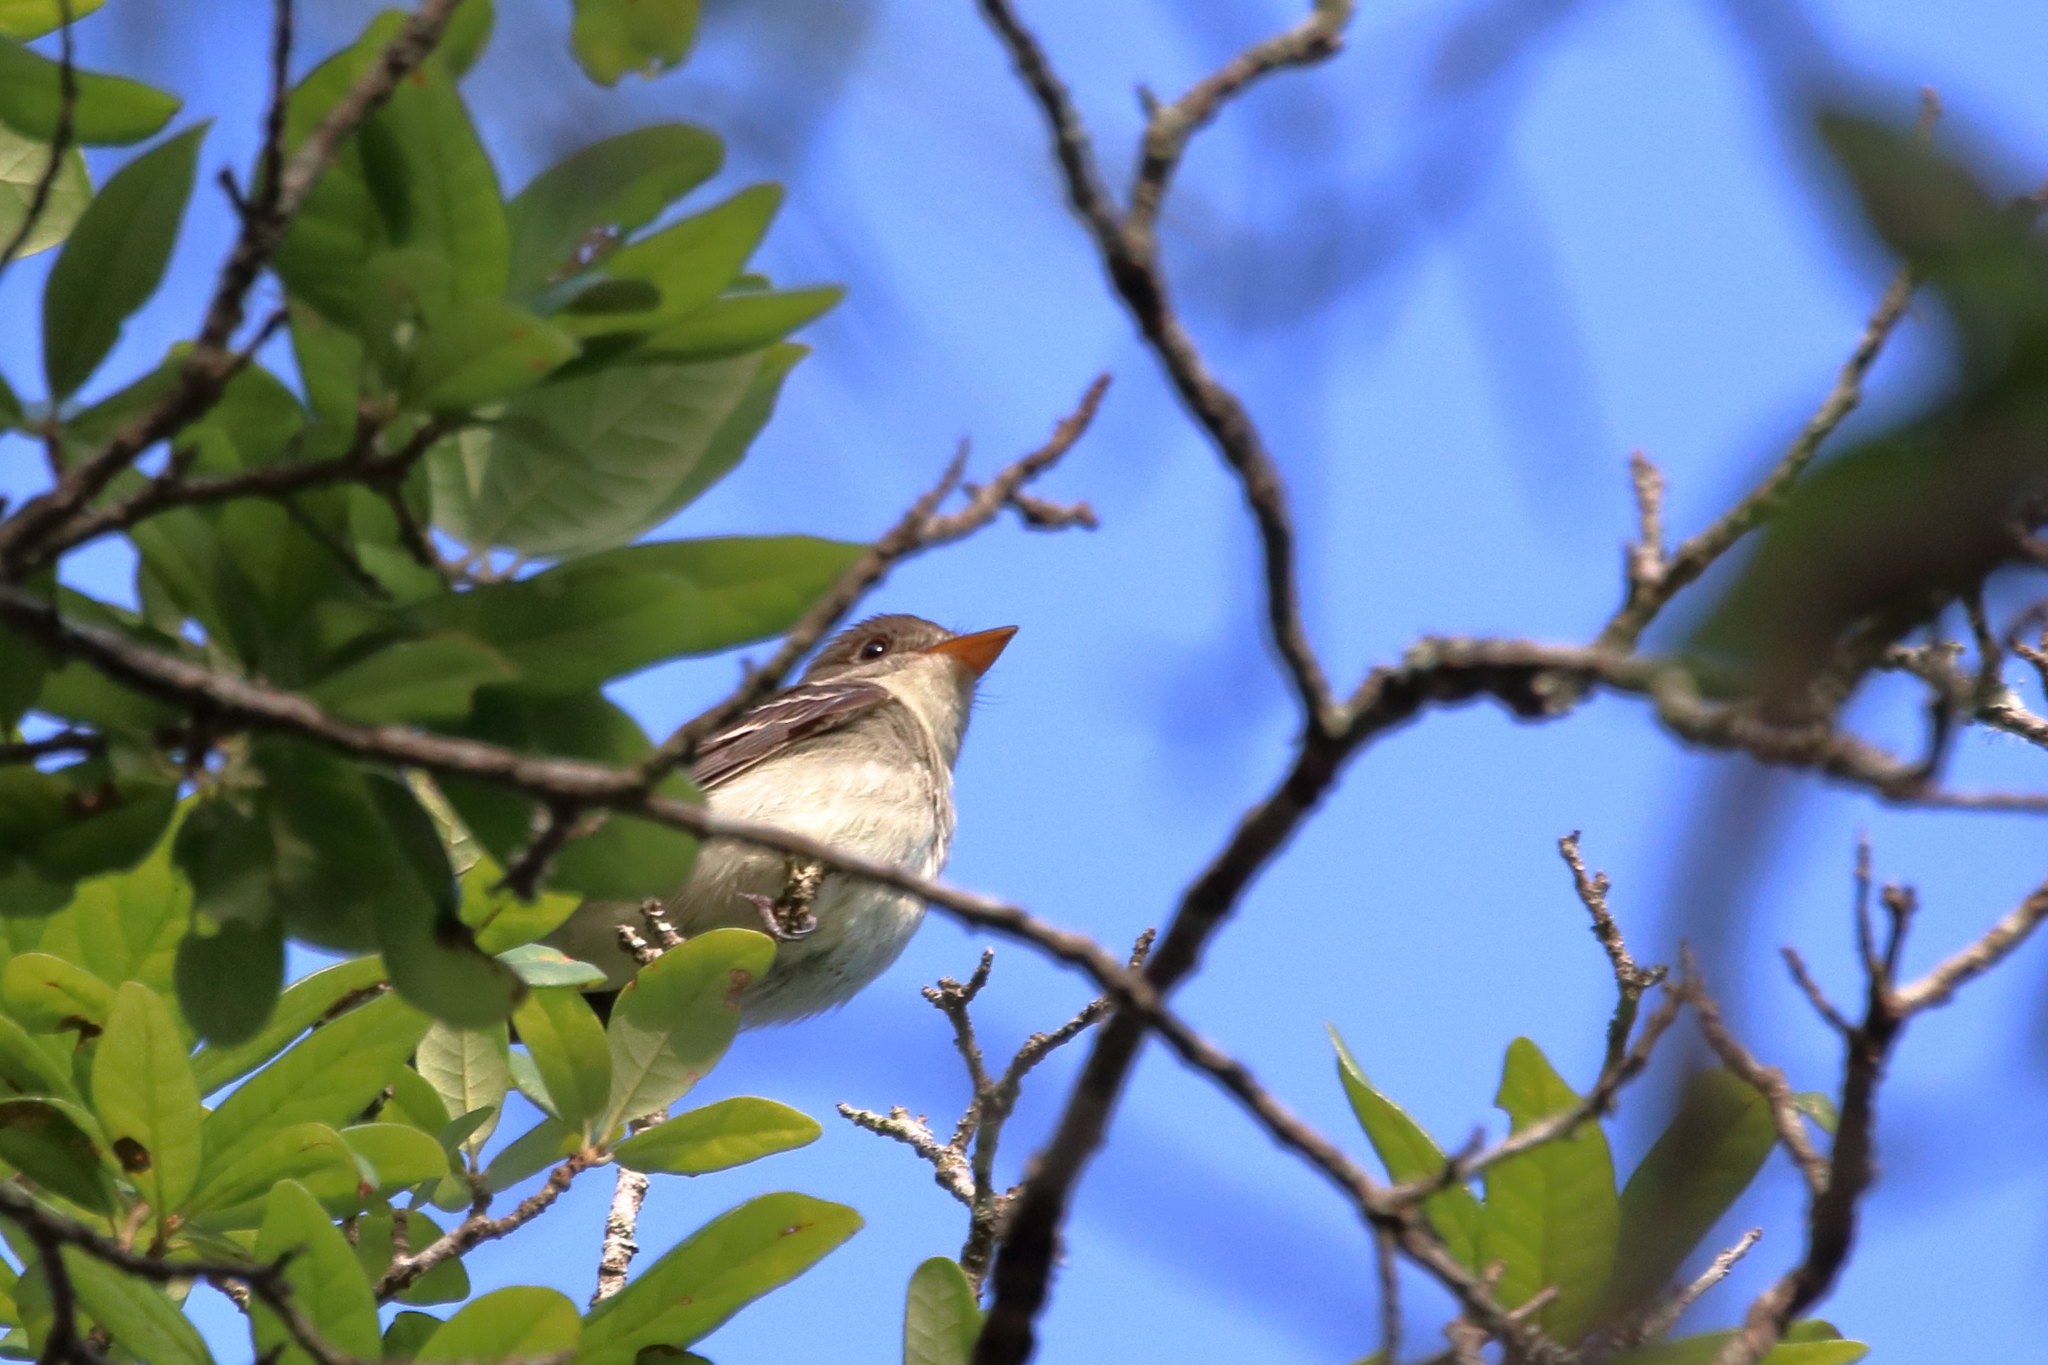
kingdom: Animalia
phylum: Chordata
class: Aves
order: Passeriformes
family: Tyrannidae
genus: Contopus
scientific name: Contopus virens
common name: Eastern wood-pewee
